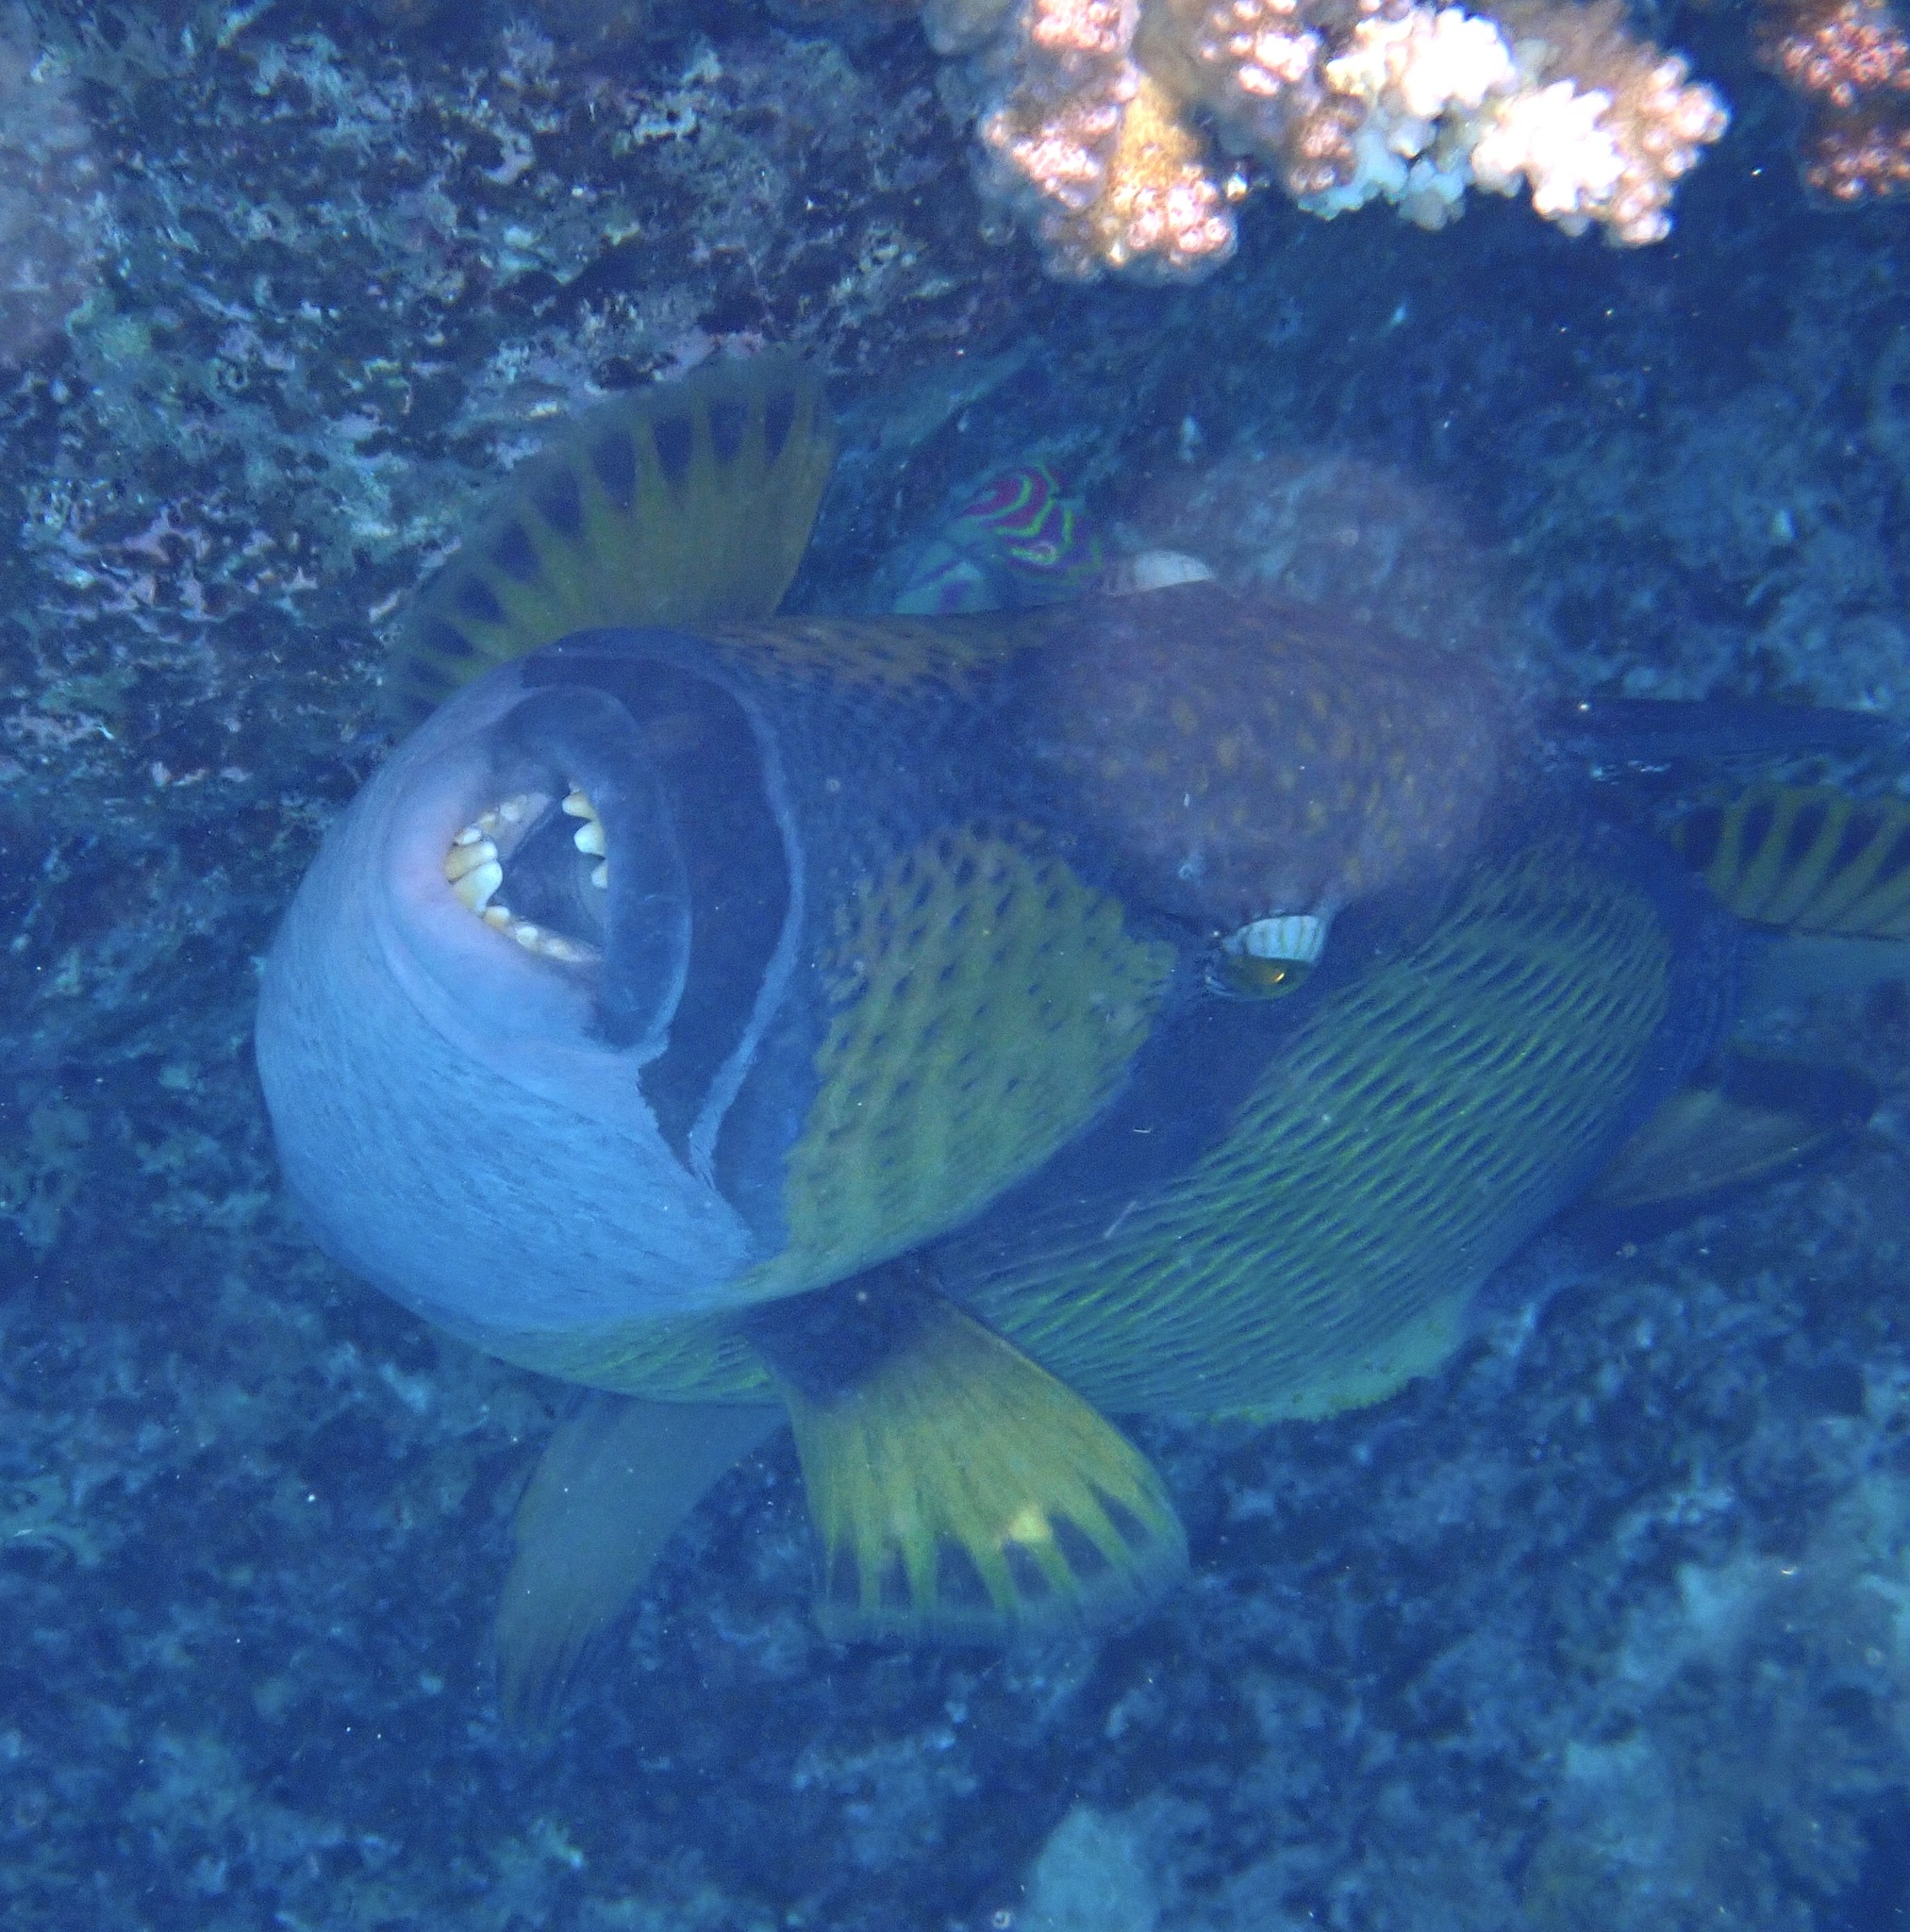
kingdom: Animalia
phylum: Chordata
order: Tetraodontiformes
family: Balistidae
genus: Balistoides
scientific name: Balistoides viridescens
